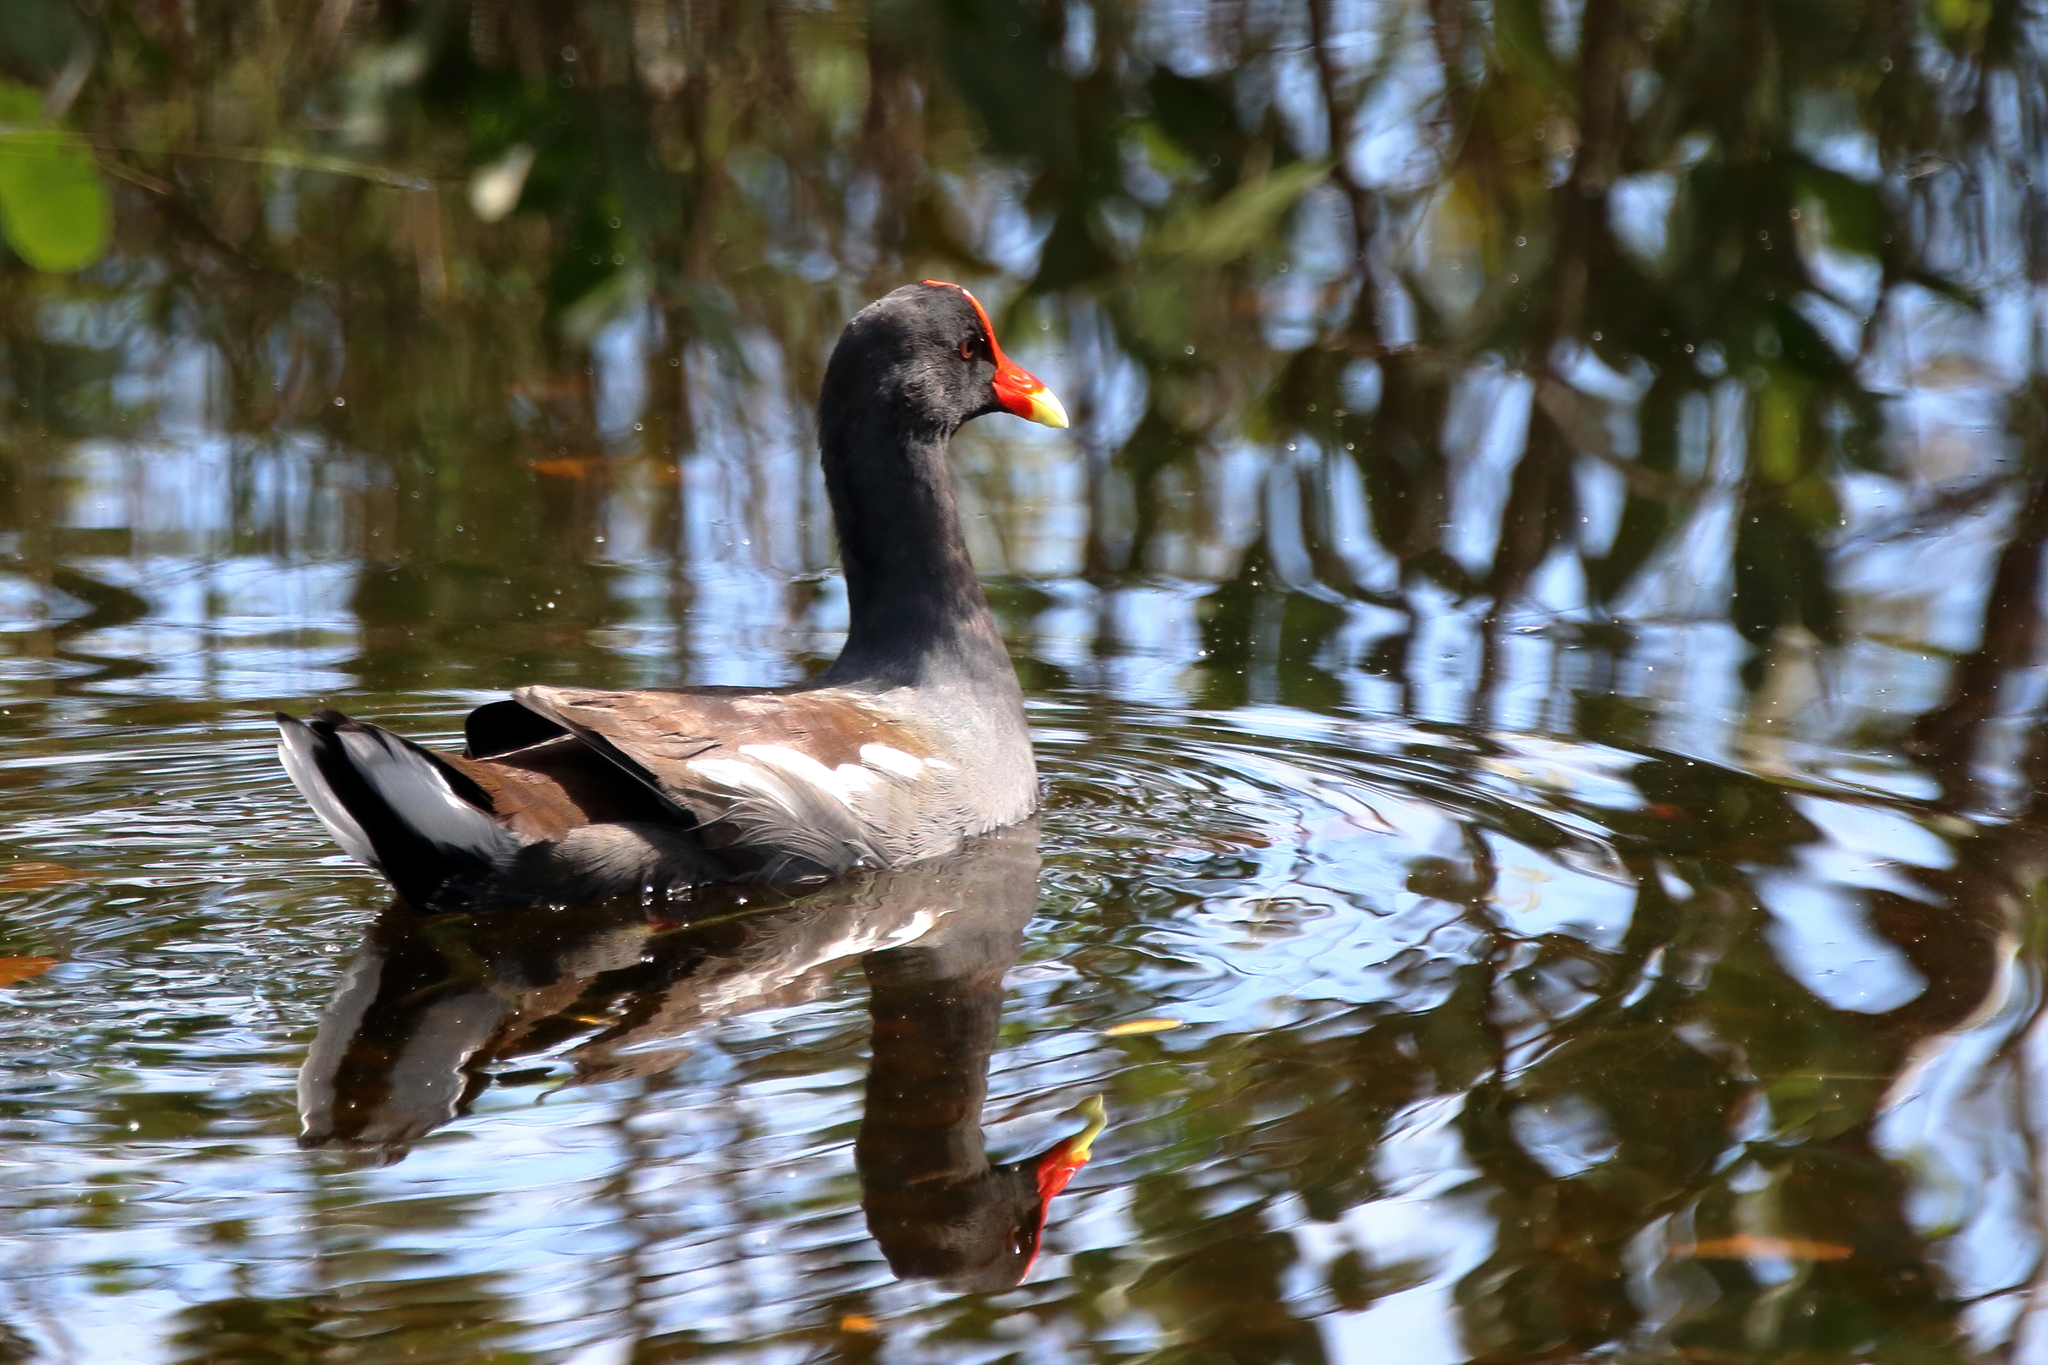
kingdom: Animalia
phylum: Chordata
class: Aves
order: Gruiformes
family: Rallidae
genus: Gallinula
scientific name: Gallinula chloropus
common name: Common moorhen
